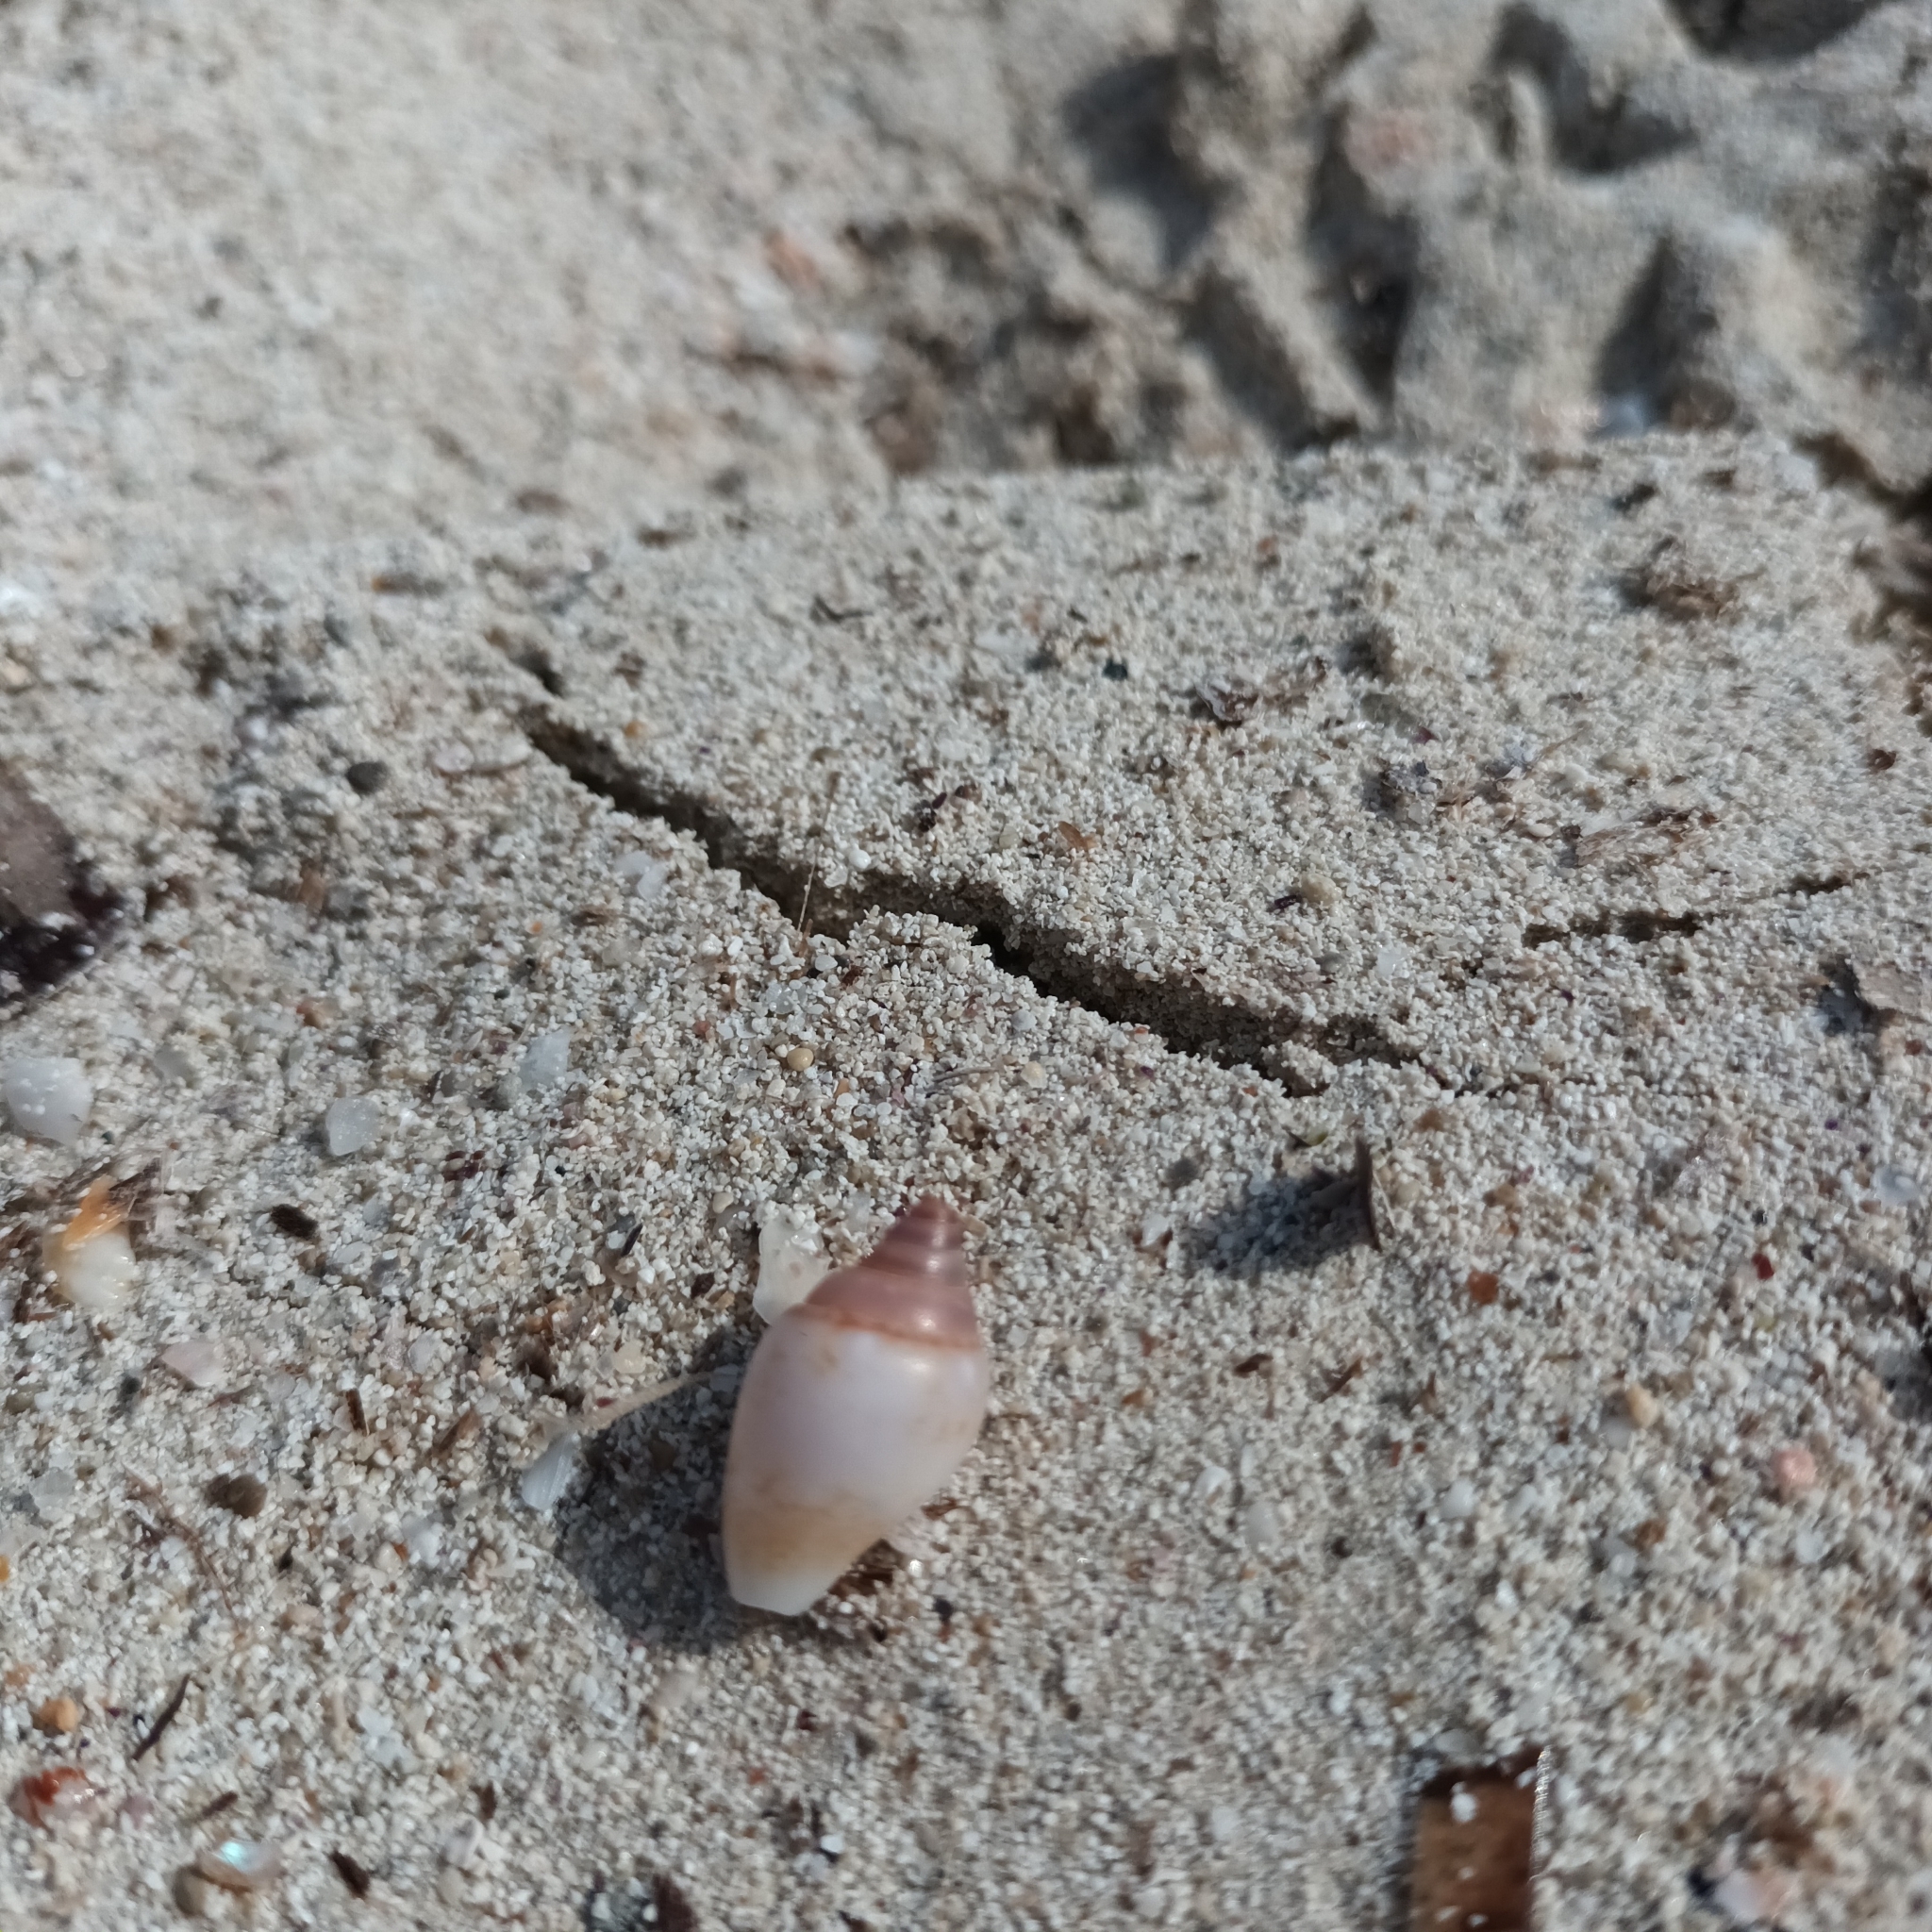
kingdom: Animalia
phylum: Mollusca
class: Gastropoda
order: Neogastropoda
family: Columbellidae
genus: Columbella
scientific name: Columbella rustica
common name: Rustic dove shell
